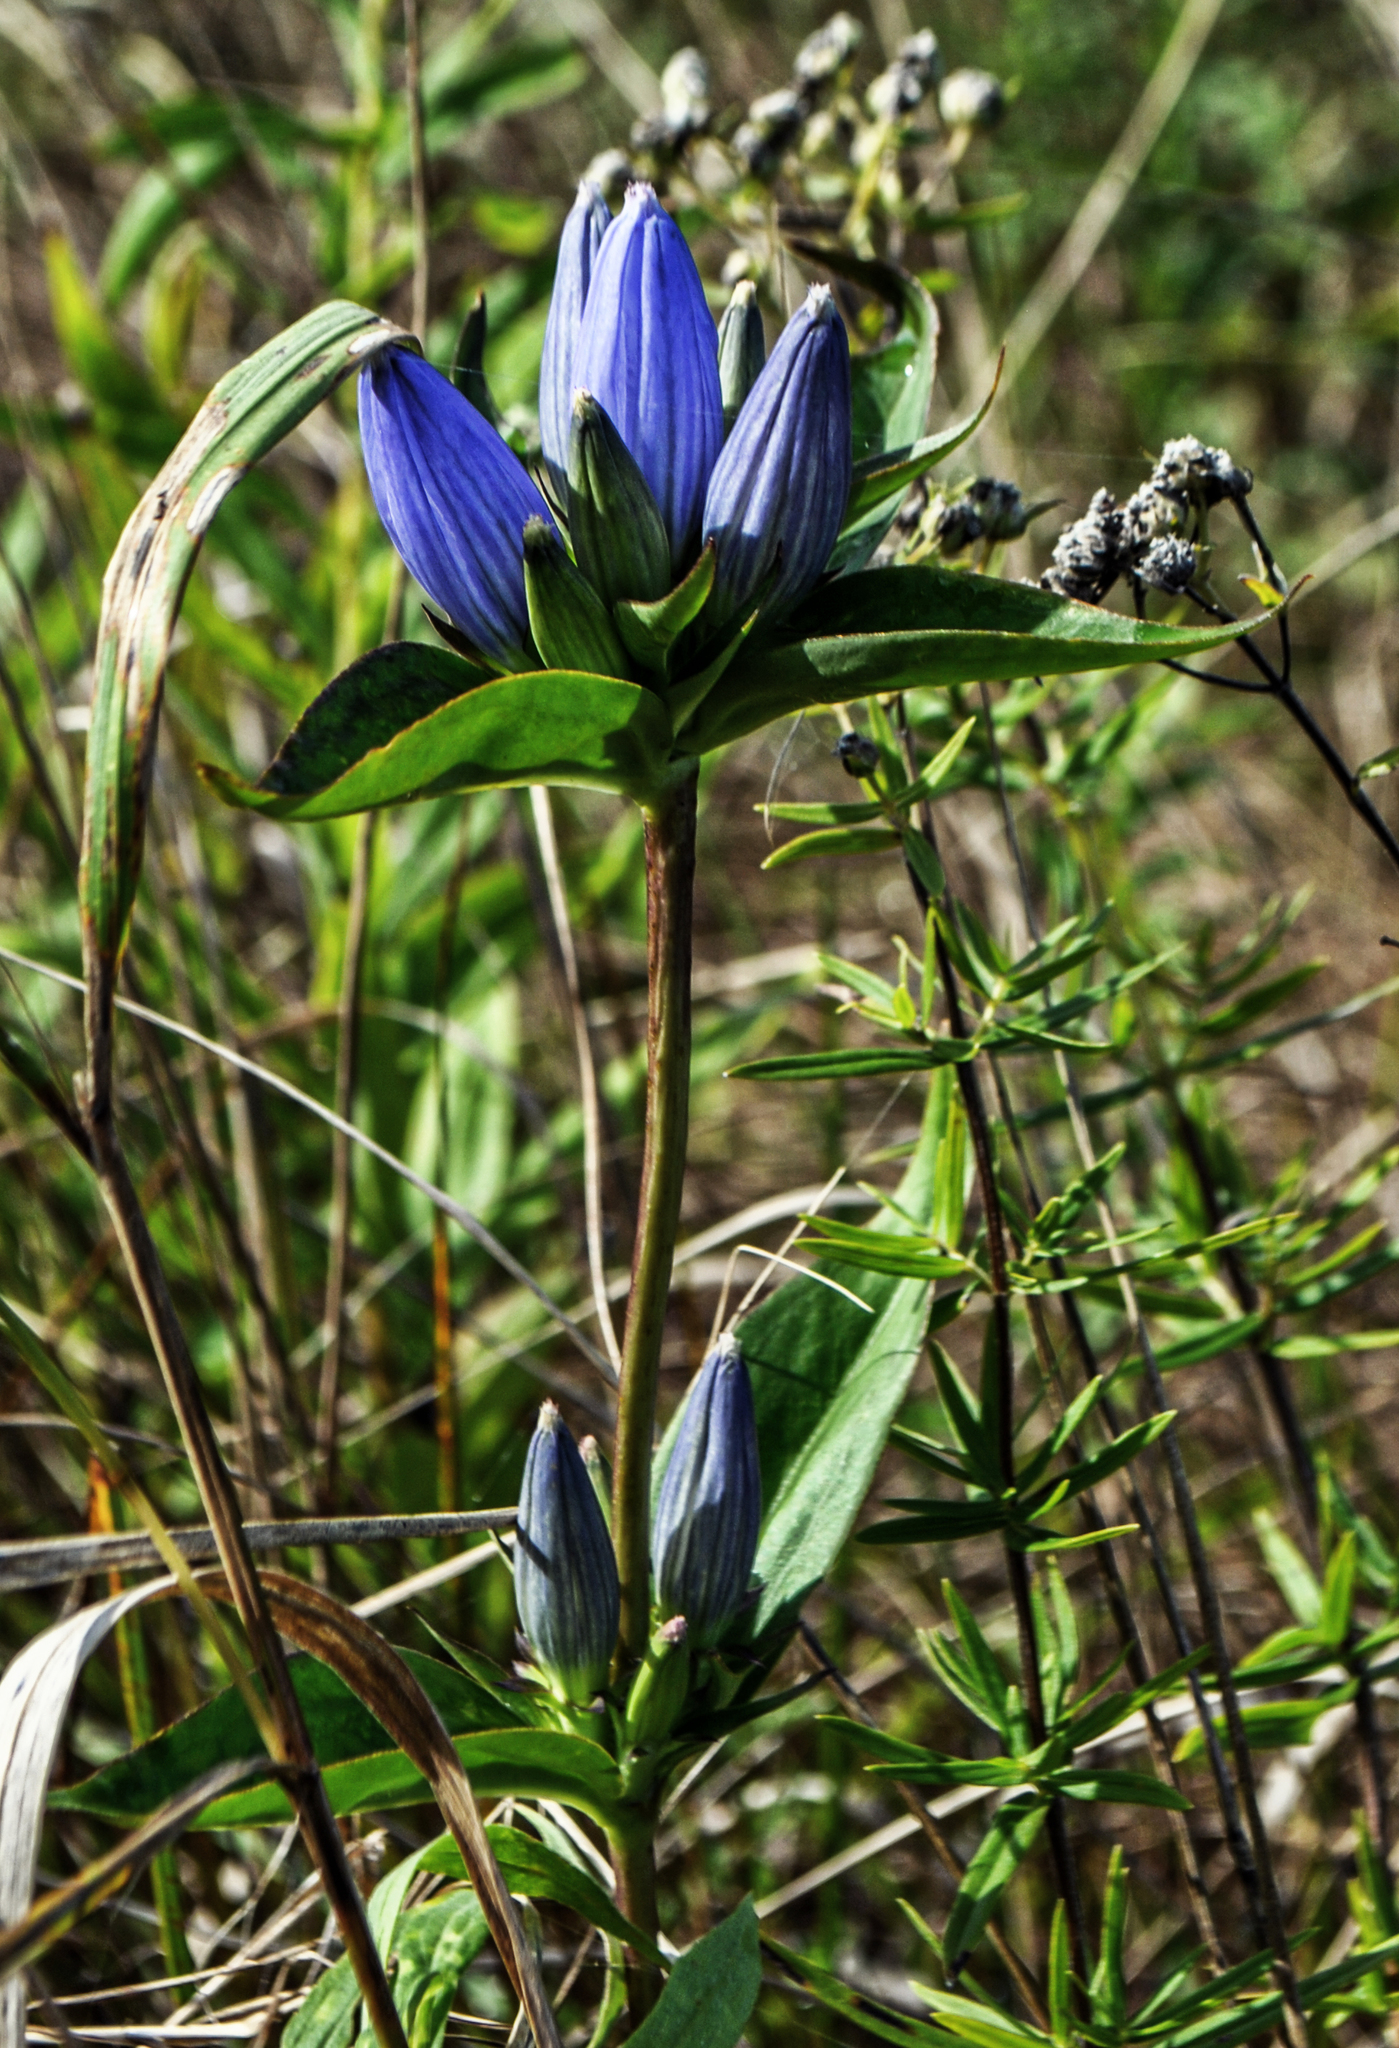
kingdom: Plantae
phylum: Tracheophyta
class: Magnoliopsida
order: Gentianales
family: Gentianaceae
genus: Gentiana
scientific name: Gentiana andrewsii
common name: Bottle gentian
